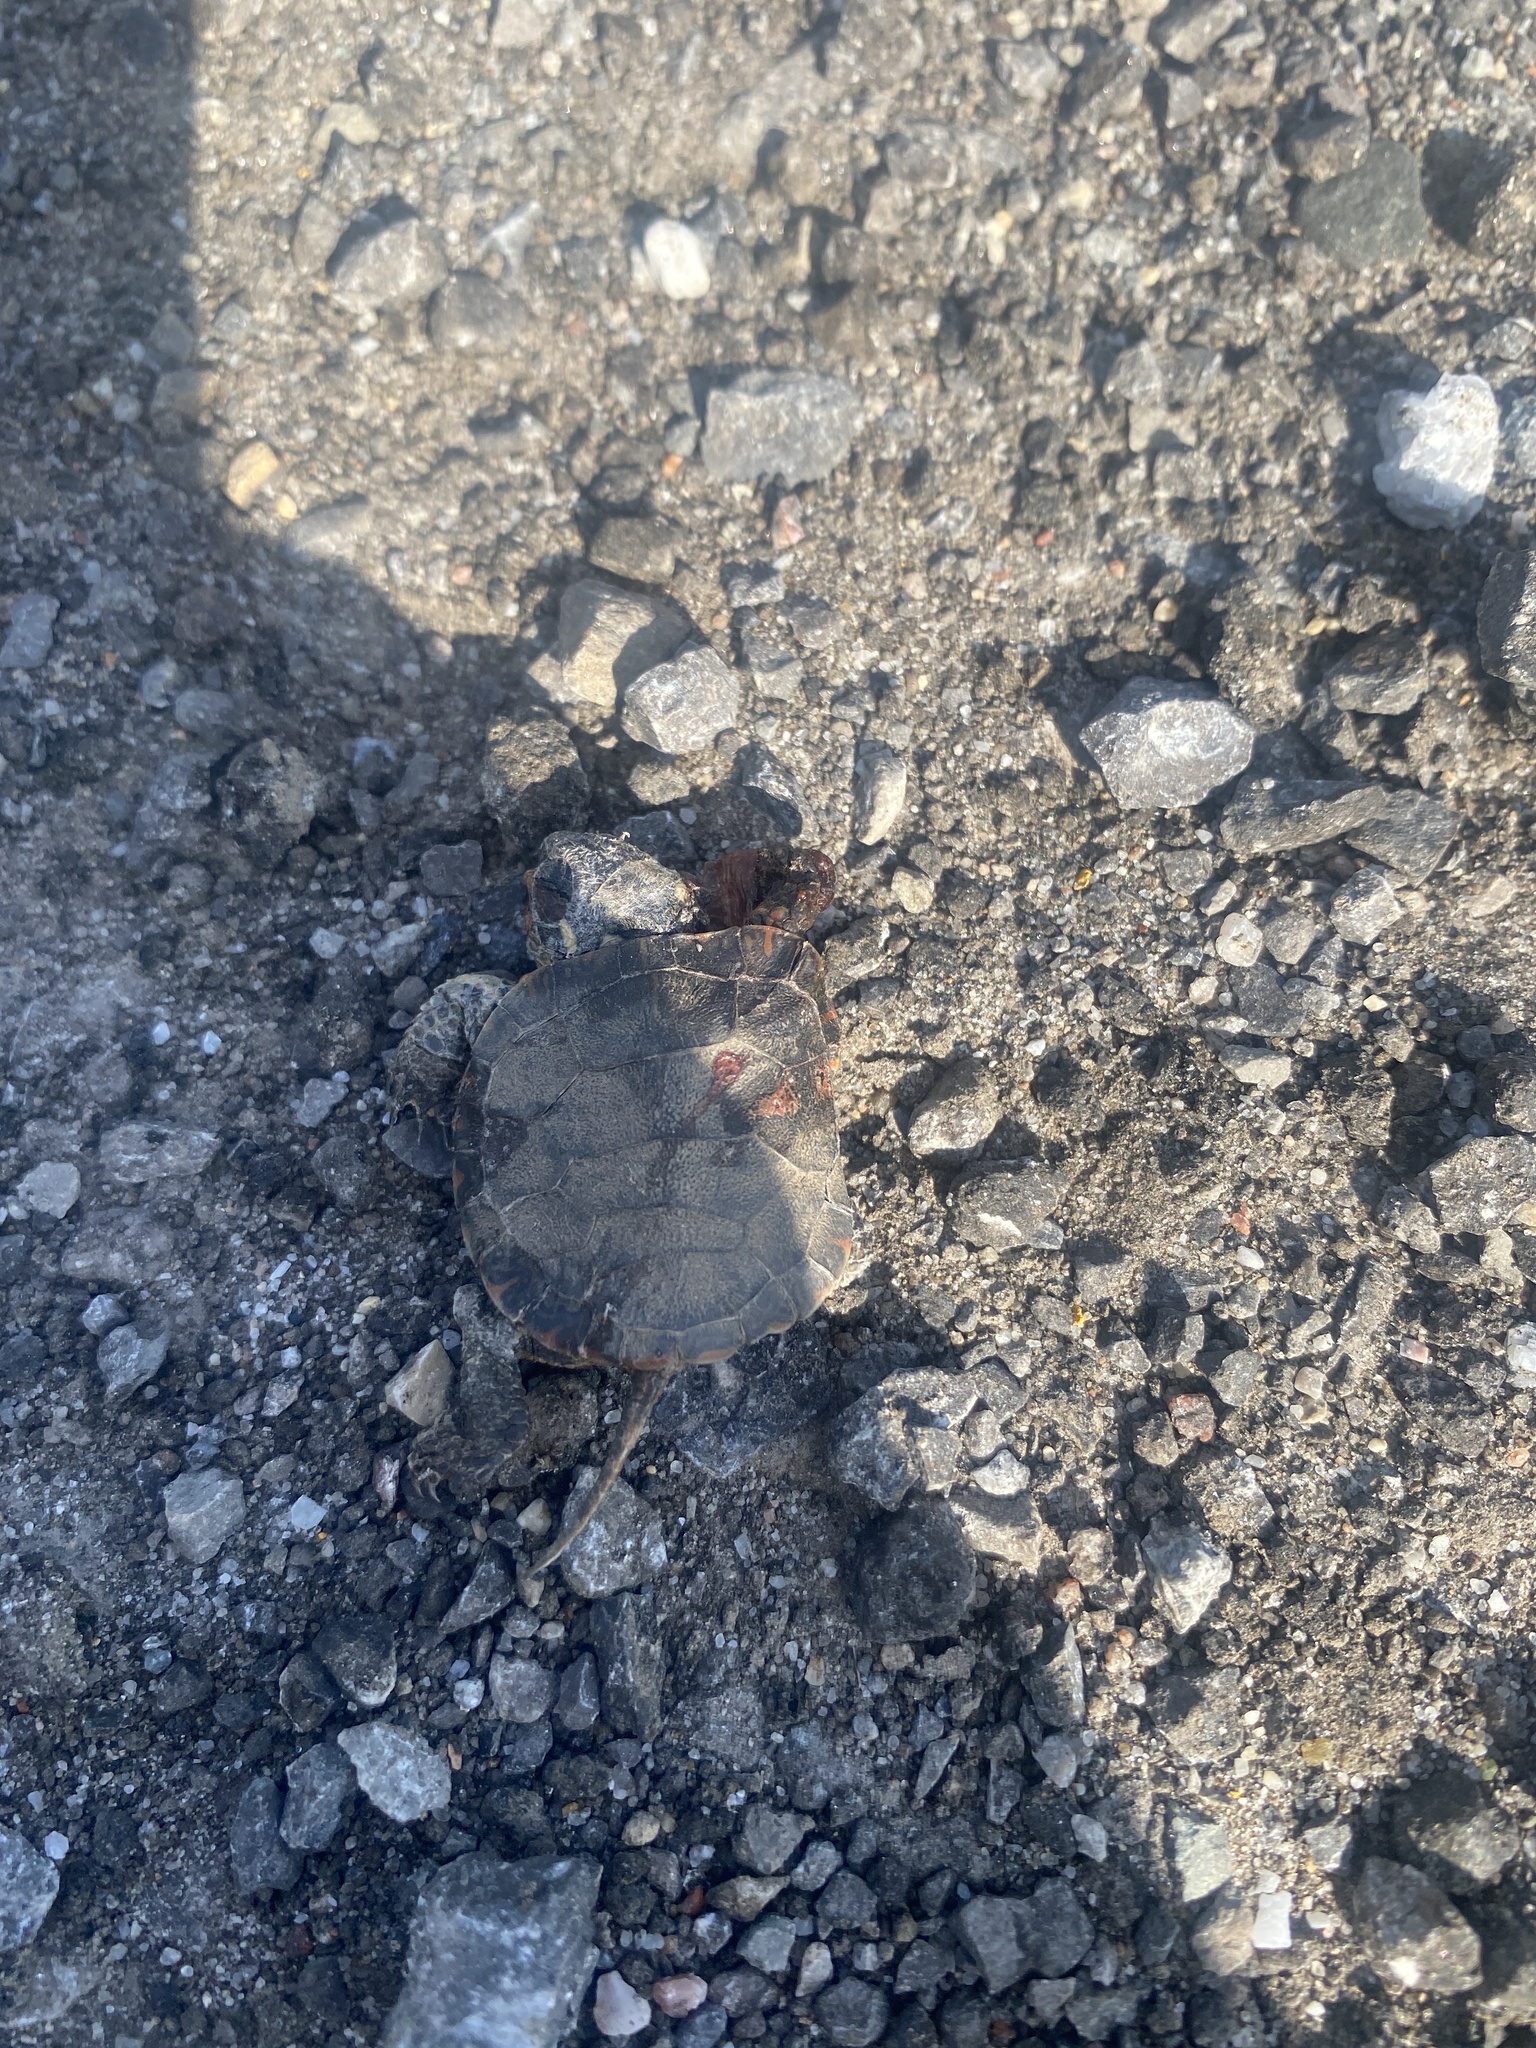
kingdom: Animalia
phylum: Chordata
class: Testudines
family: Emydidae
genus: Chrysemys
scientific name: Chrysemys picta
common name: Painted turtle
